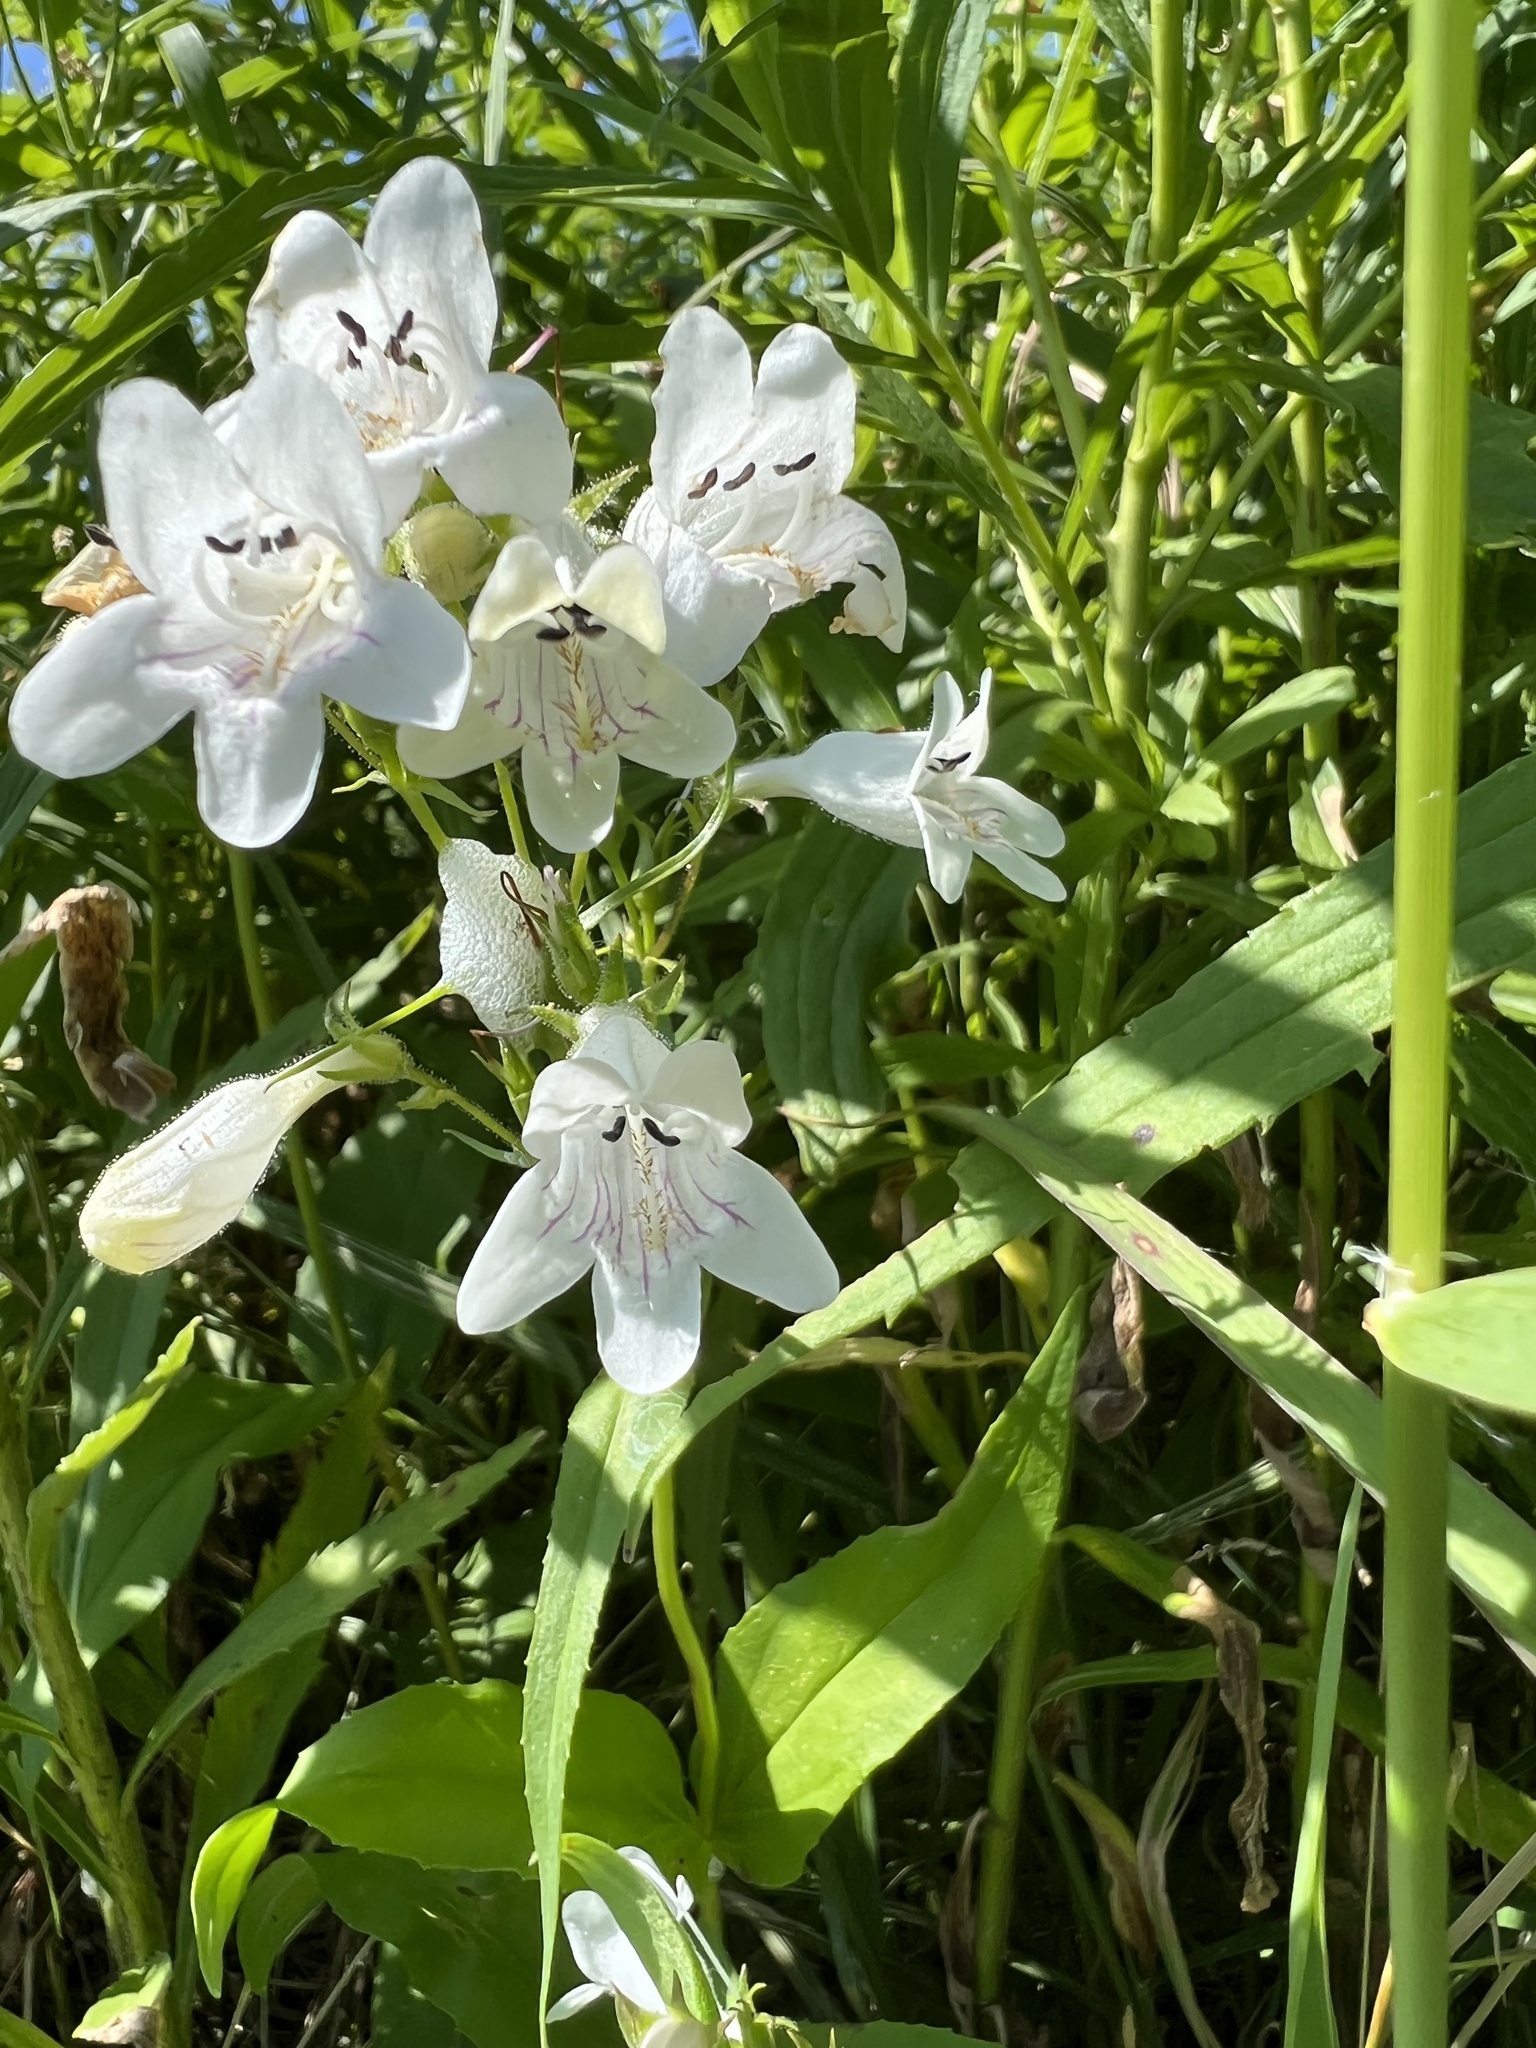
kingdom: Plantae
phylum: Tracheophyta
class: Magnoliopsida
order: Lamiales
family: Plantaginaceae
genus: Penstemon
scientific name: Penstemon digitalis
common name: Foxglove beardtongue
